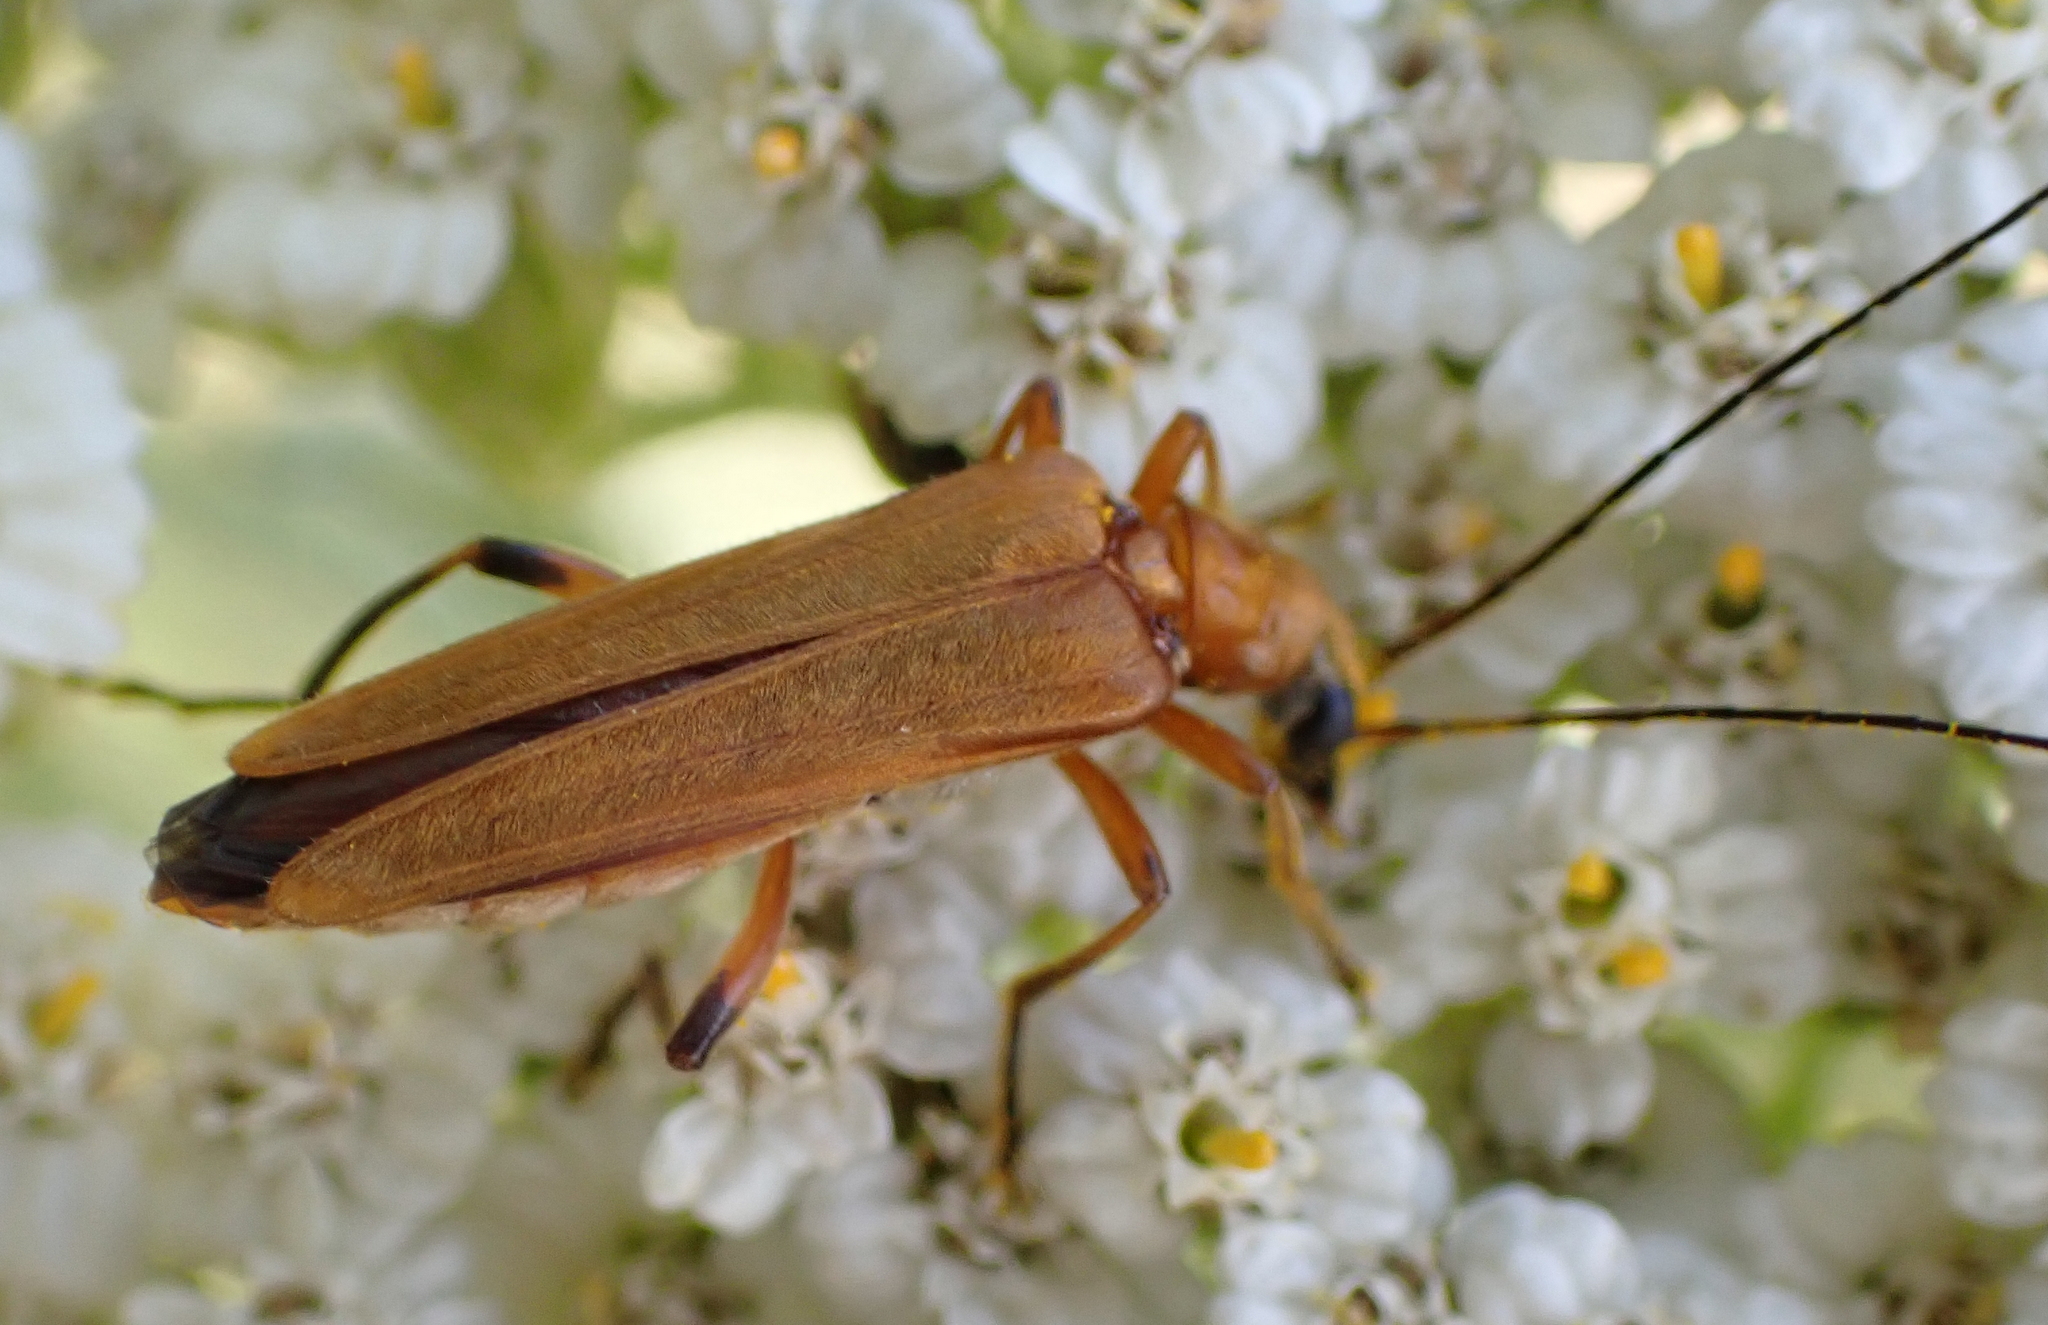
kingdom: Animalia
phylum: Arthropoda
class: Insecta
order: Coleoptera
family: Oedemeridae
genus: Oedemera
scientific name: Oedemera podagrariae
